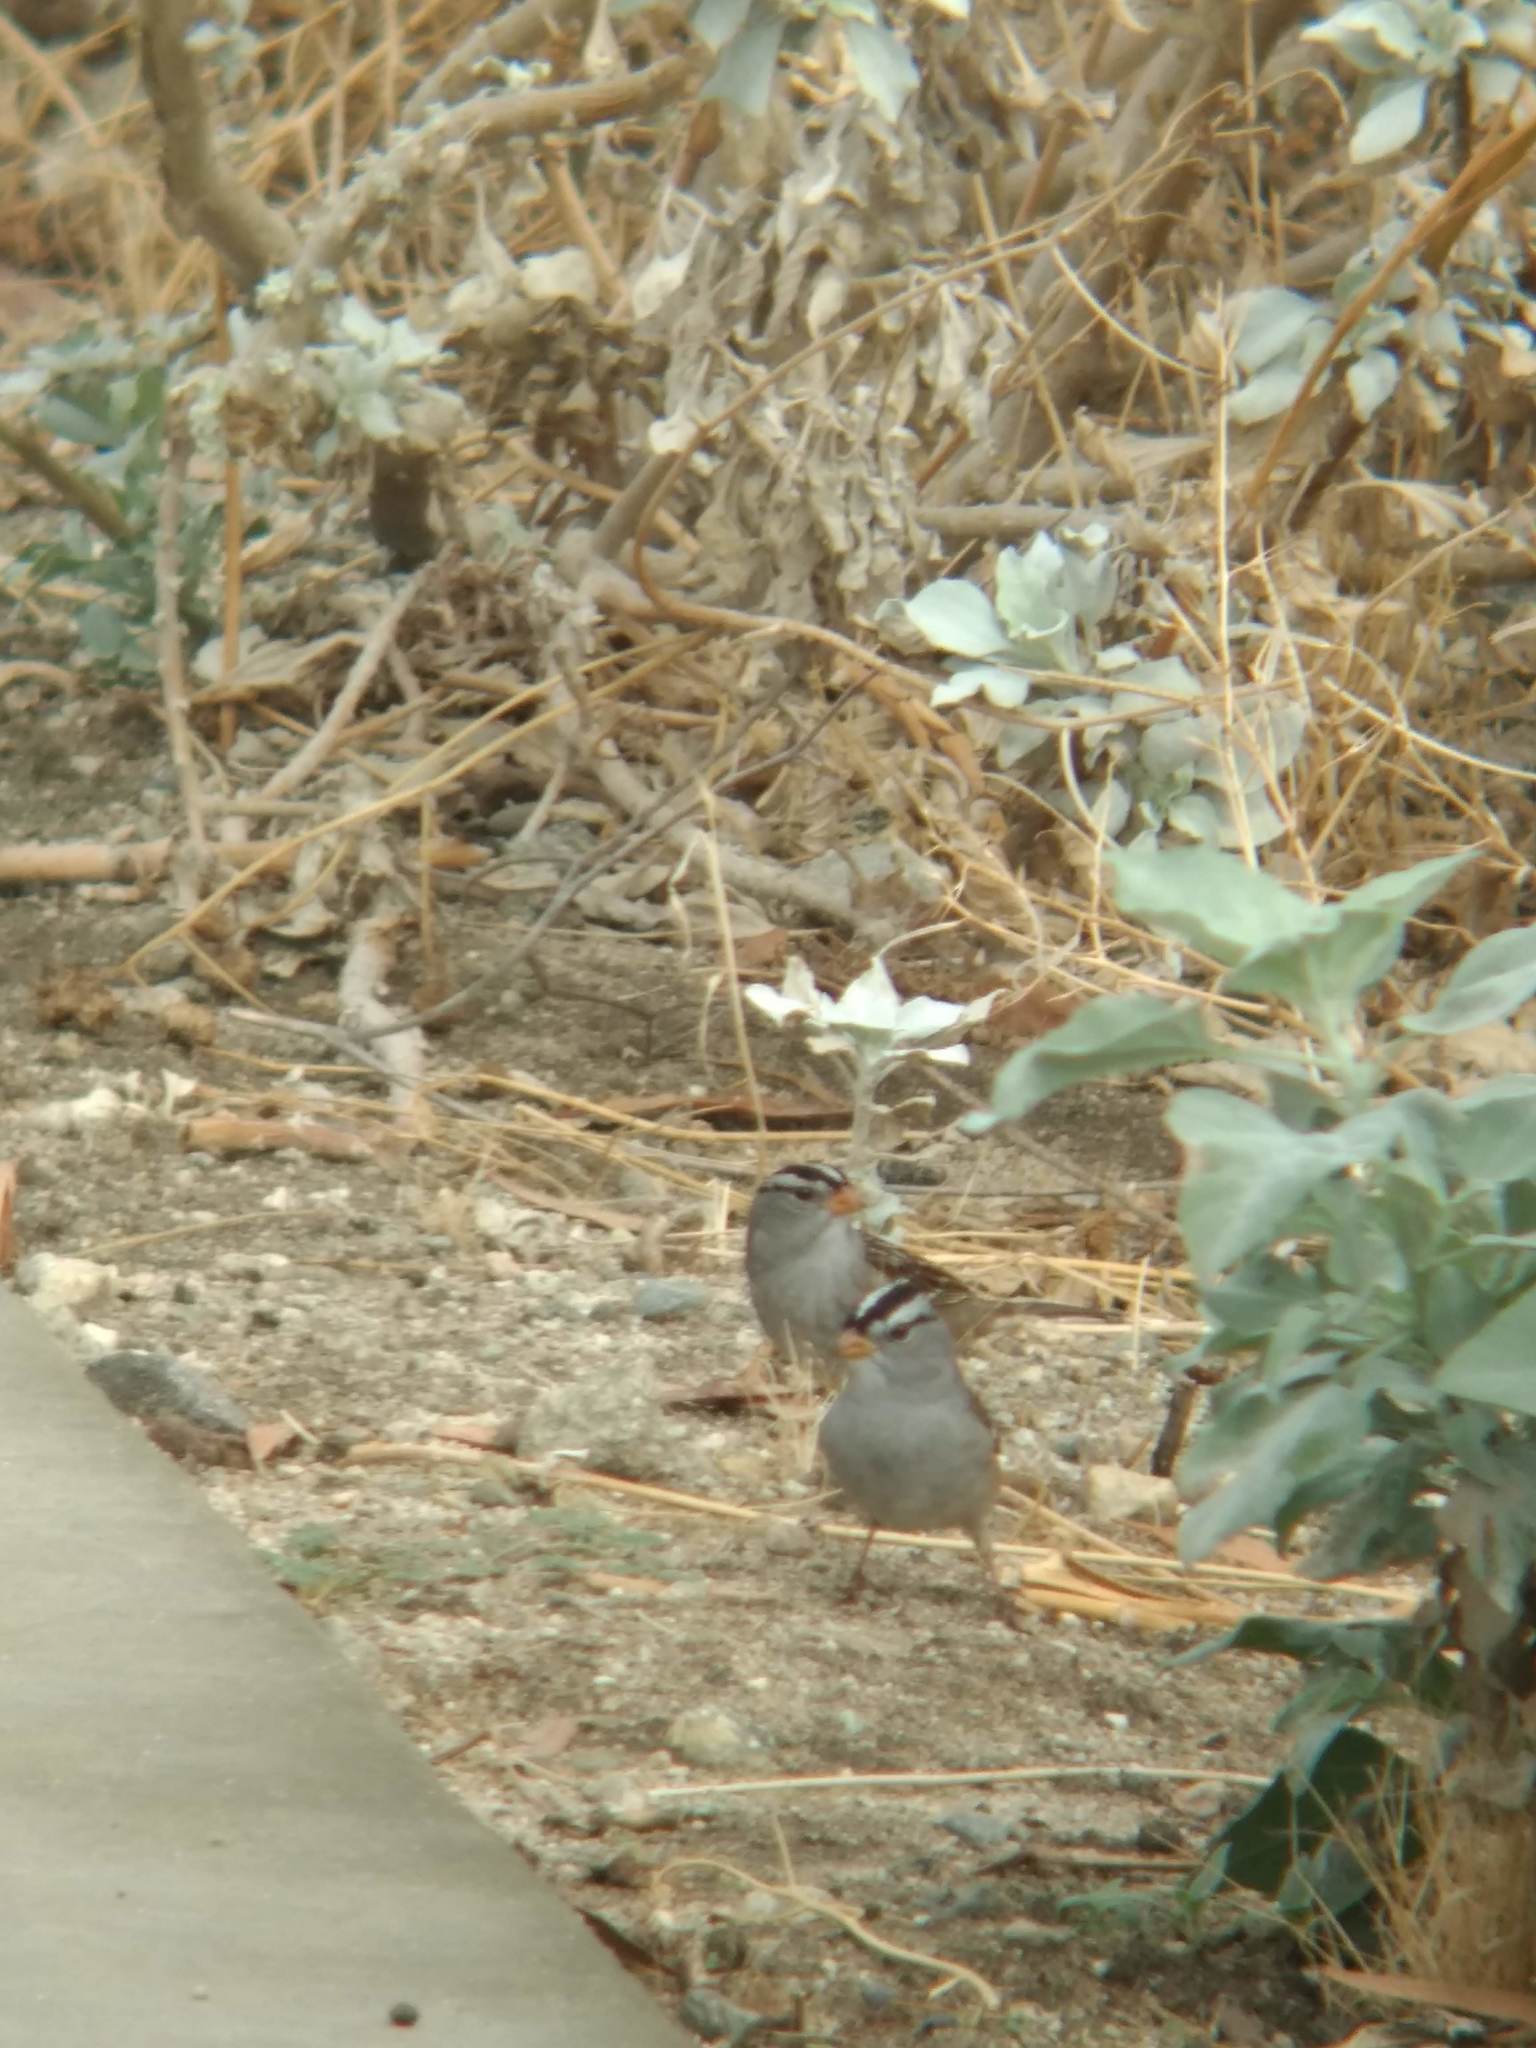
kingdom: Animalia
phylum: Chordata
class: Aves
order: Passeriformes
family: Passerellidae
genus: Zonotrichia
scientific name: Zonotrichia leucophrys
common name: White-crowned sparrow
